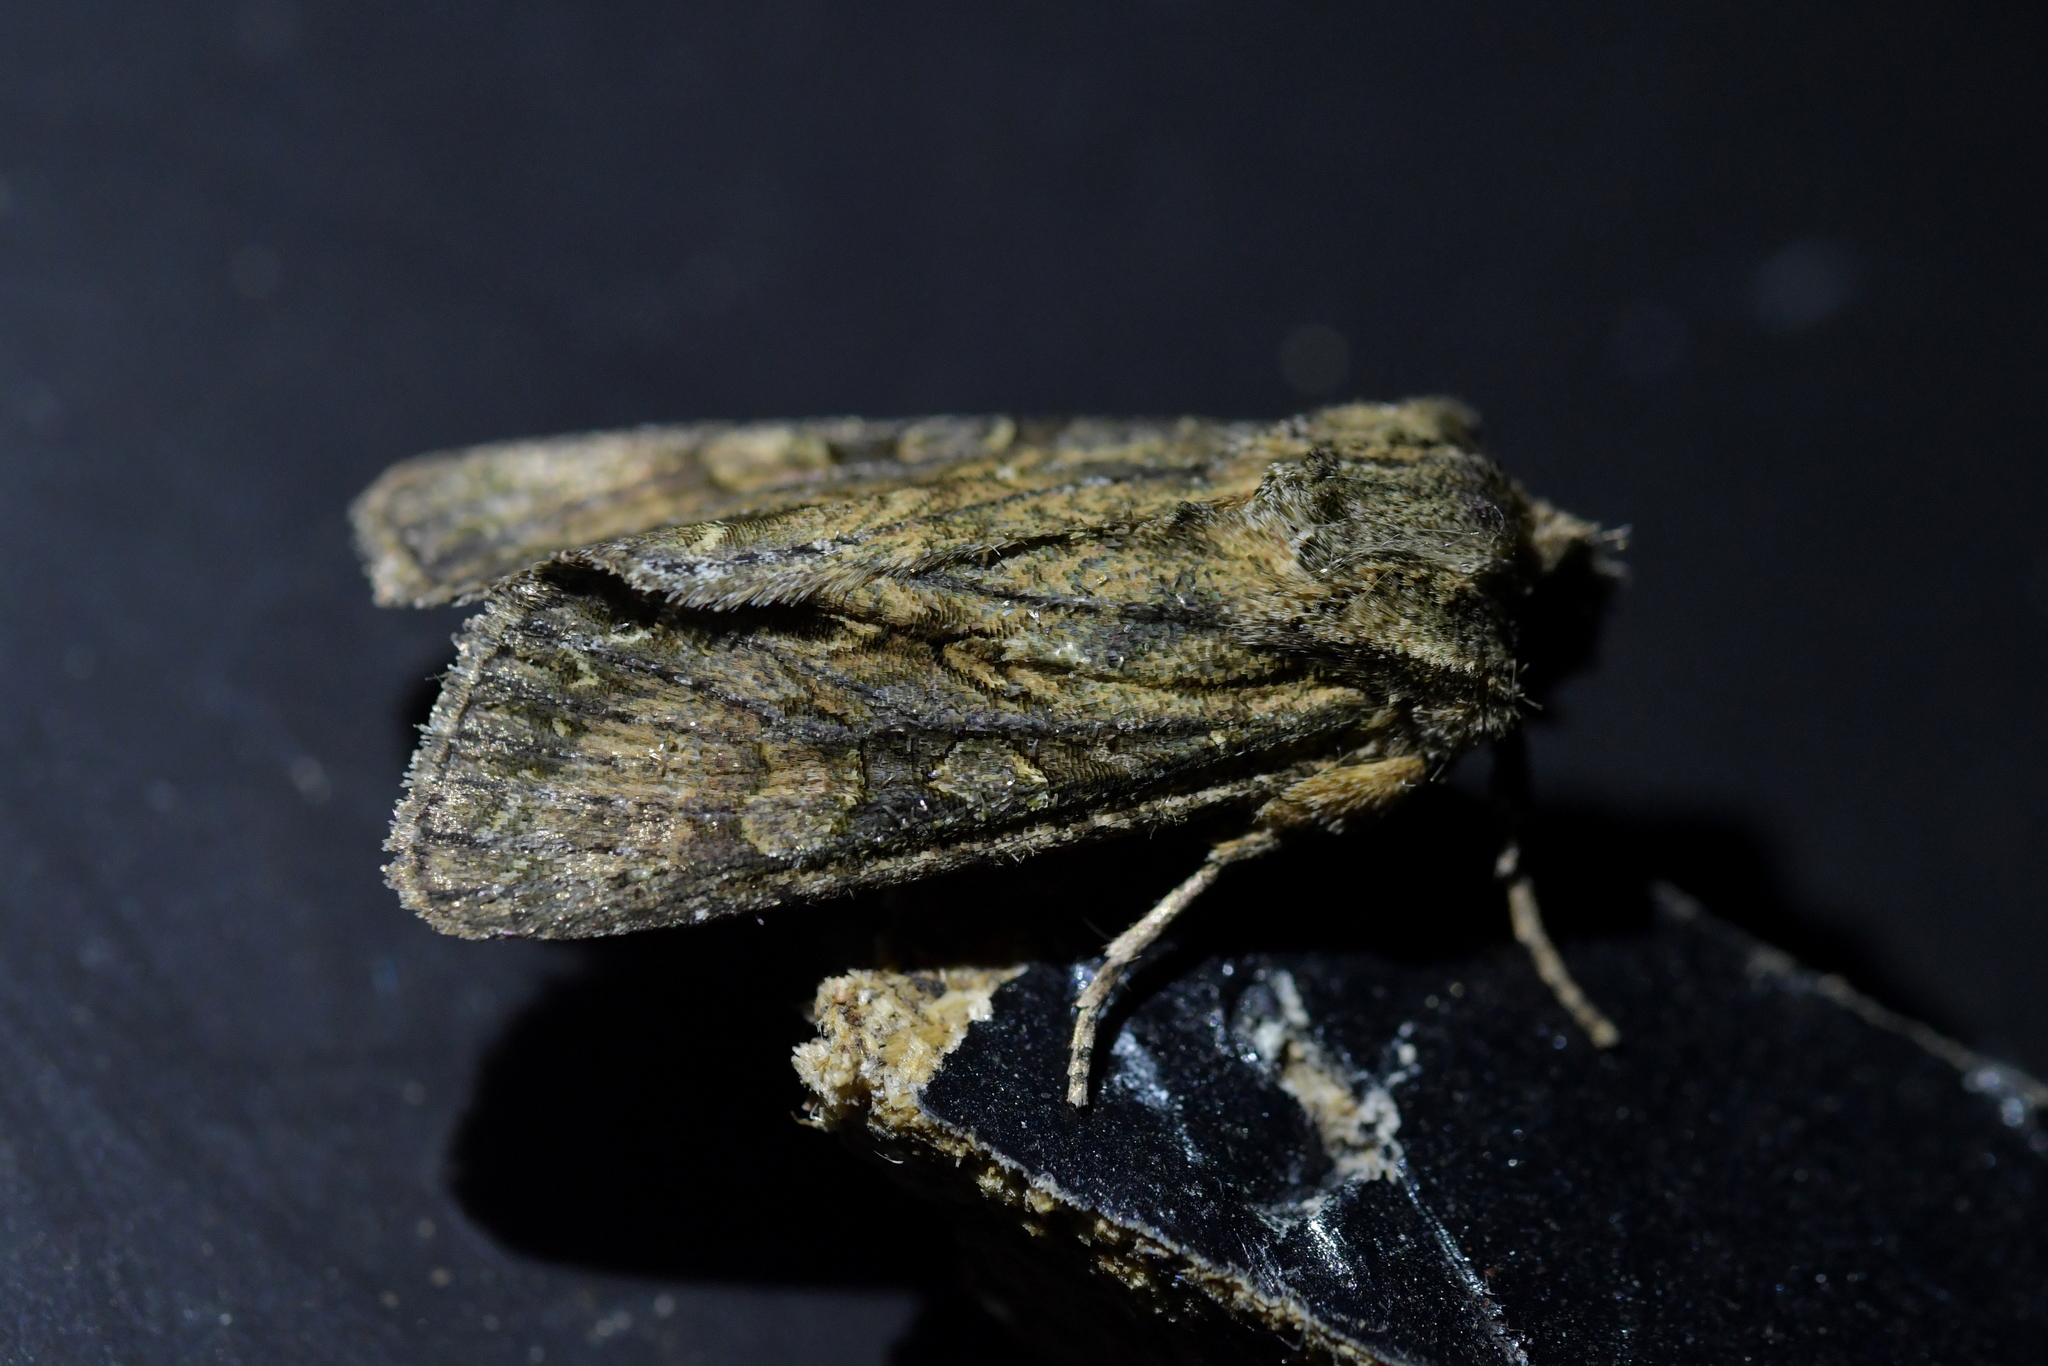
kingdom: Animalia
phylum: Arthropoda
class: Insecta
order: Lepidoptera
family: Noctuidae
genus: Ichneutica
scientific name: Ichneutica mutans
